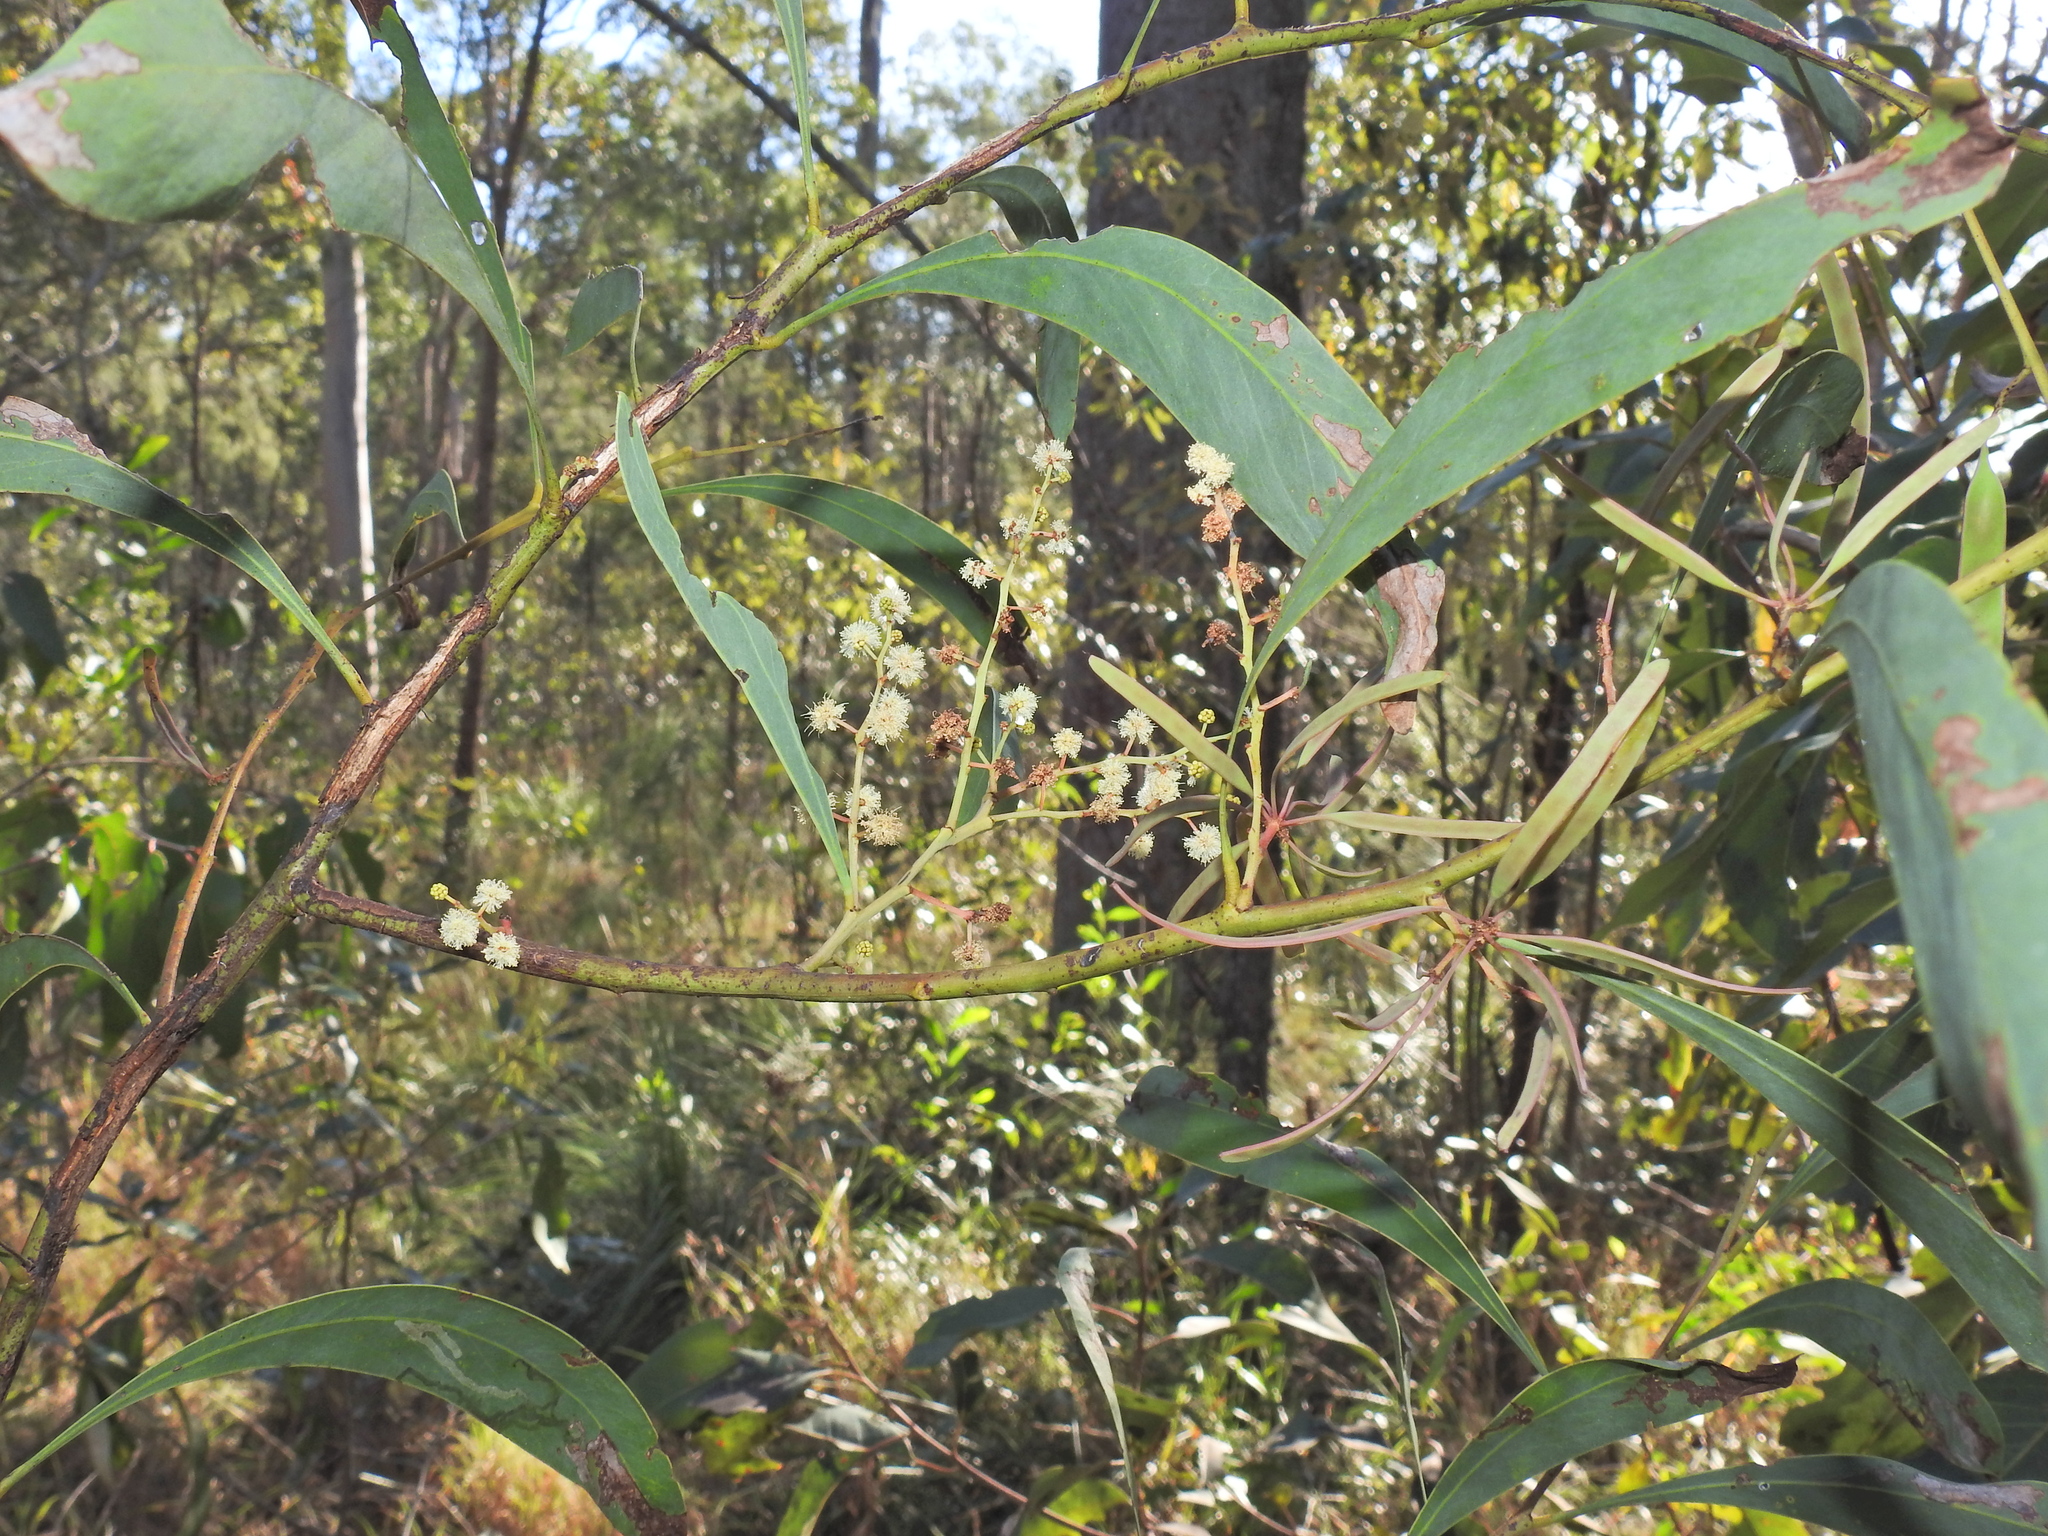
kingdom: Plantae
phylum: Tracheophyta
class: Magnoliopsida
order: Fabales
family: Fabaceae
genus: Acacia
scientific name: Acacia falcata
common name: Burra acacia
